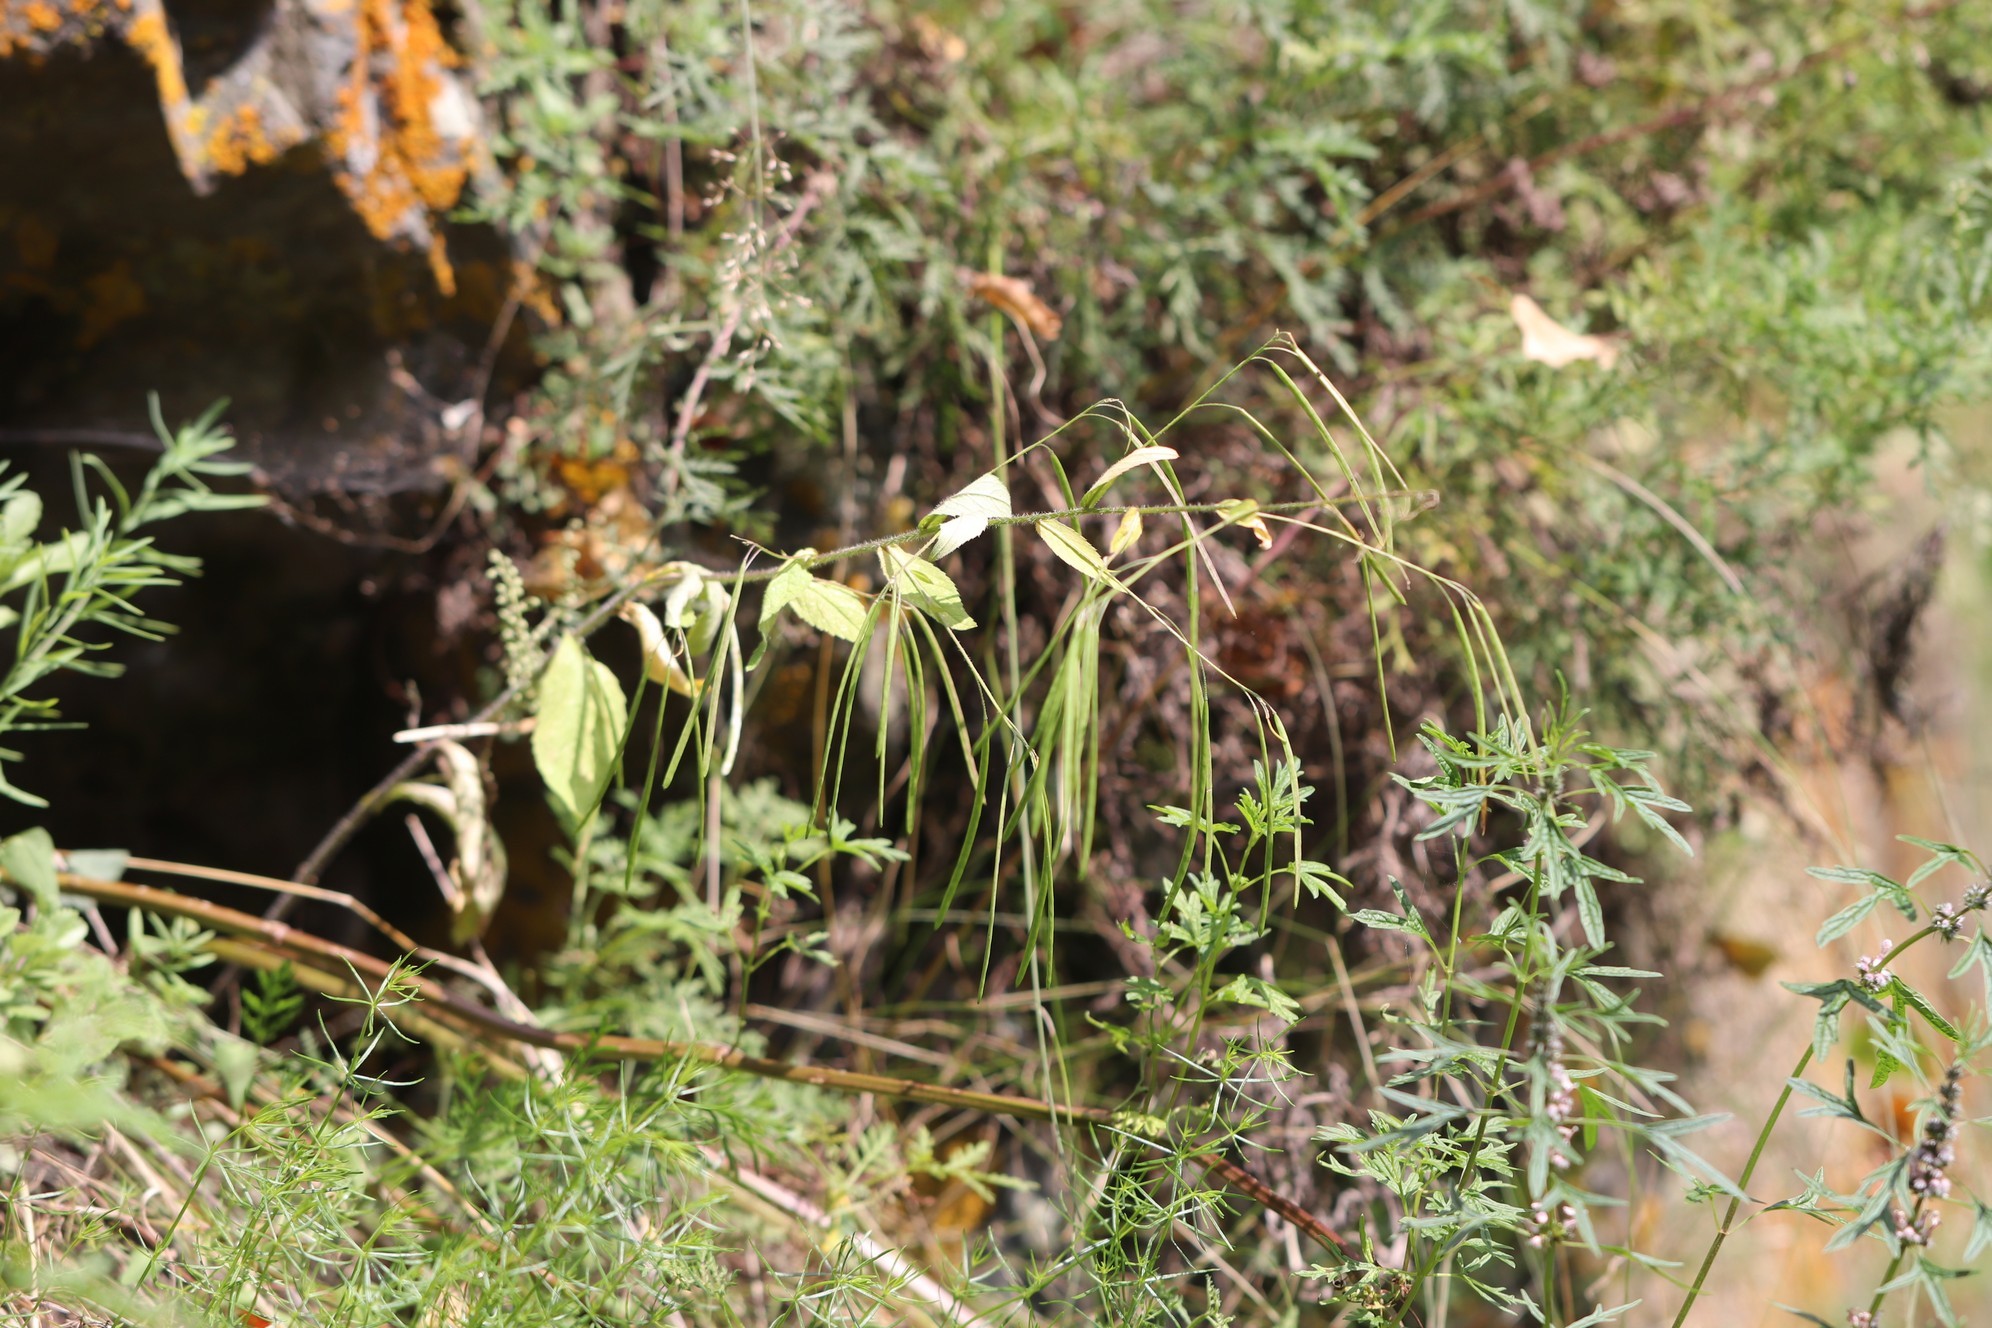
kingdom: Plantae
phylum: Tracheophyta
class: Magnoliopsida
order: Brassicales
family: Brassicaceae
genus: Catolobus
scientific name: Catolobus pendulus
